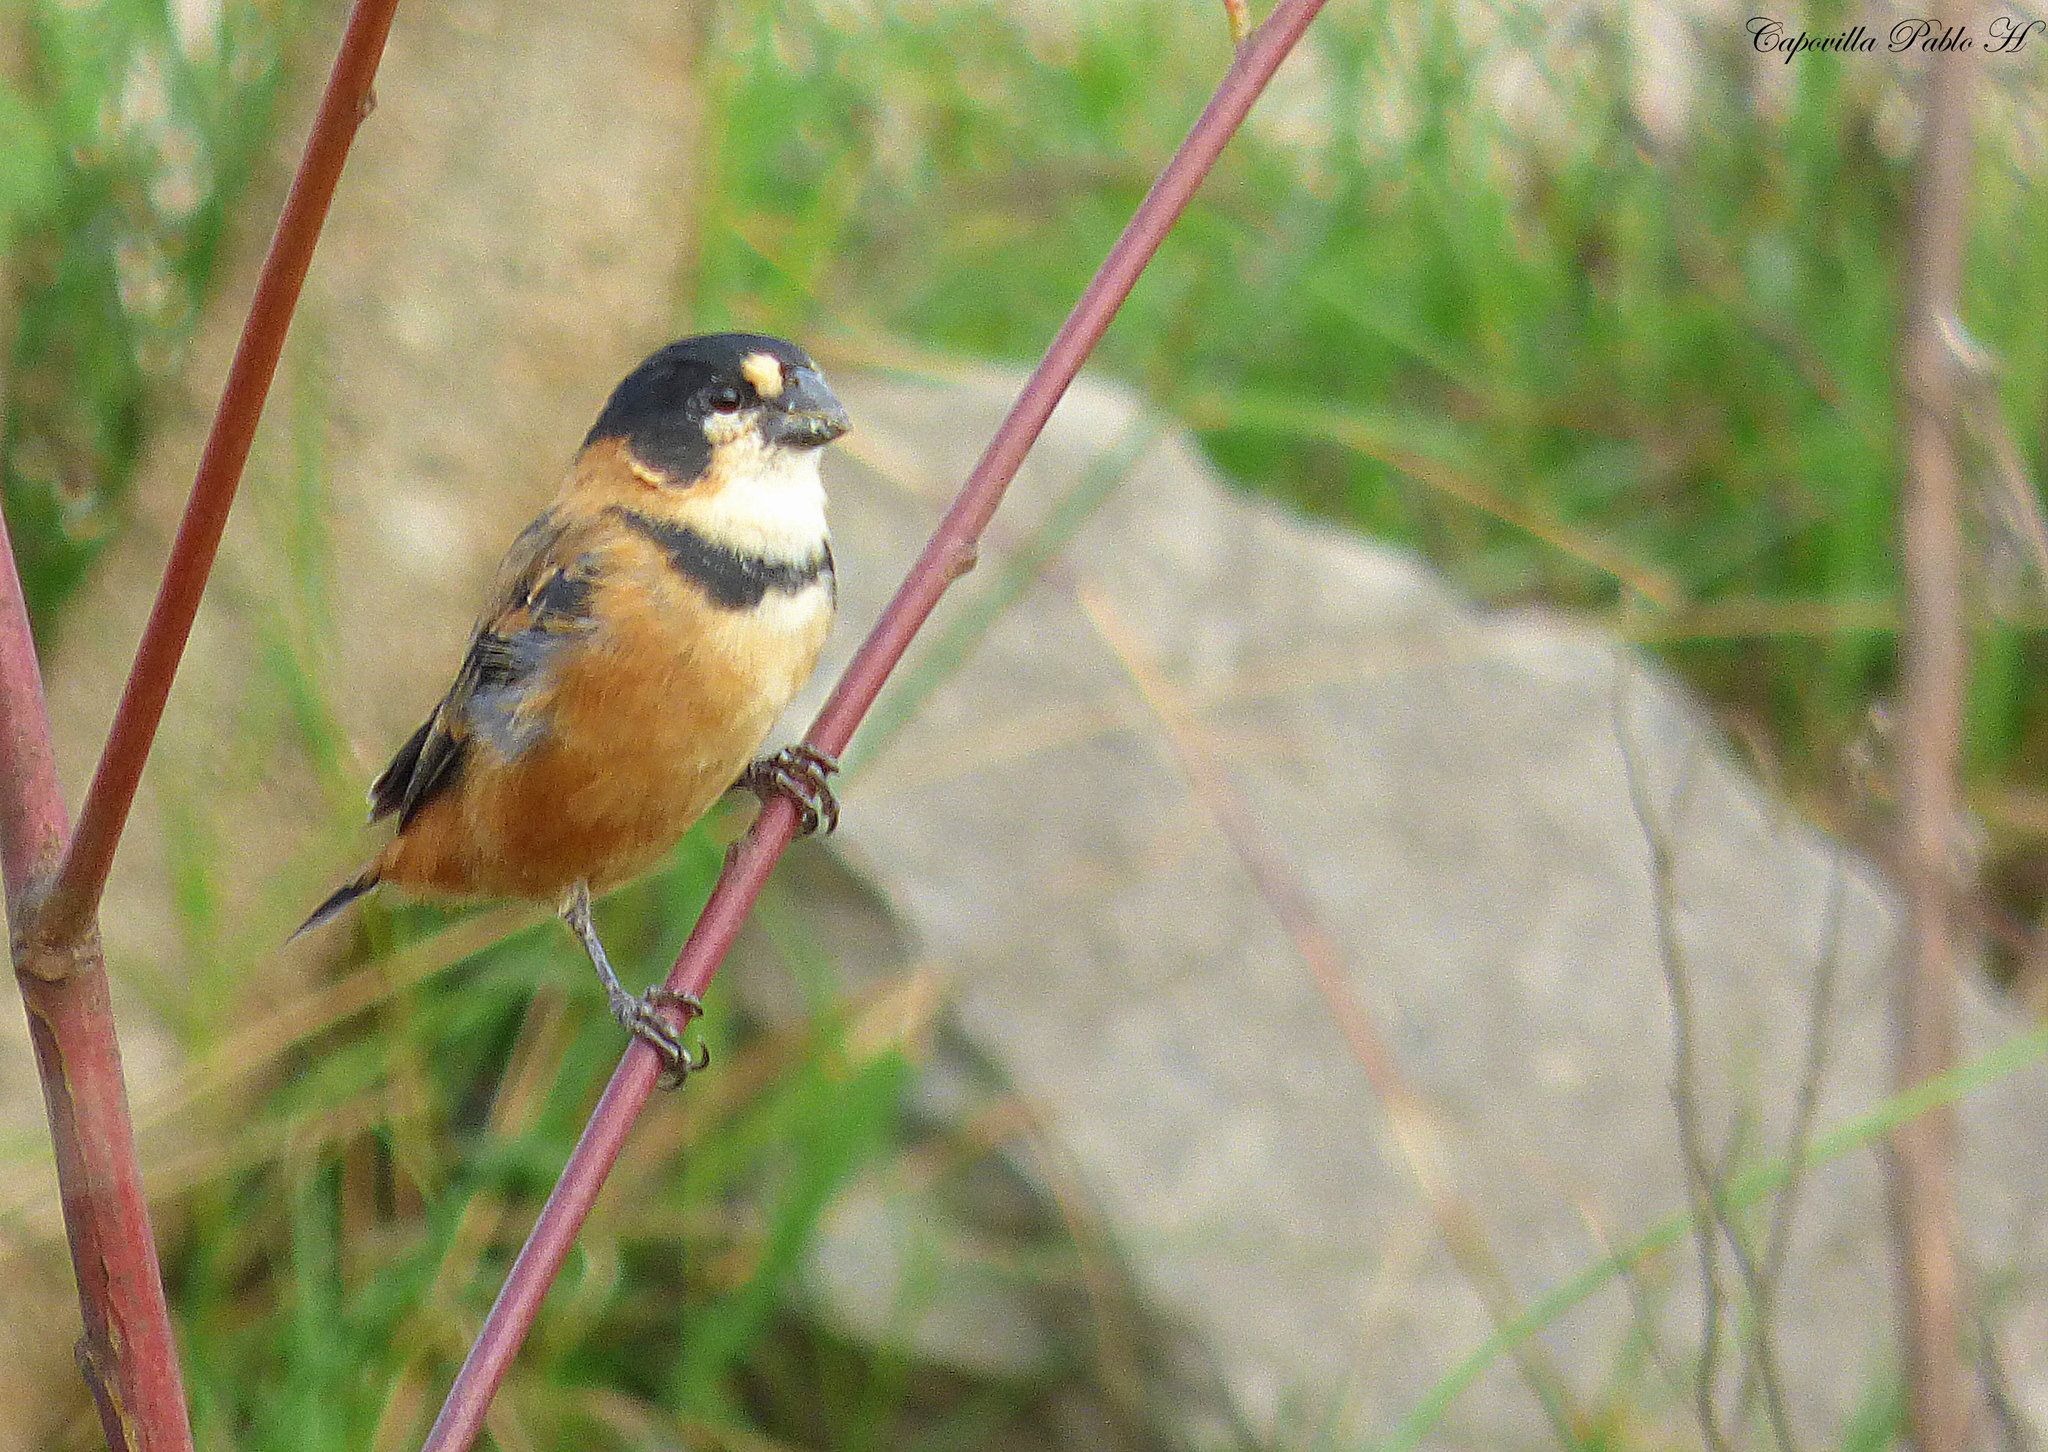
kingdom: Animalia
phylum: Chordata
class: Aves
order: Passeriformes
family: Thraupidae
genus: Sporophila
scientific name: Sporophila collaris
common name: Rusty-collared seedeater
